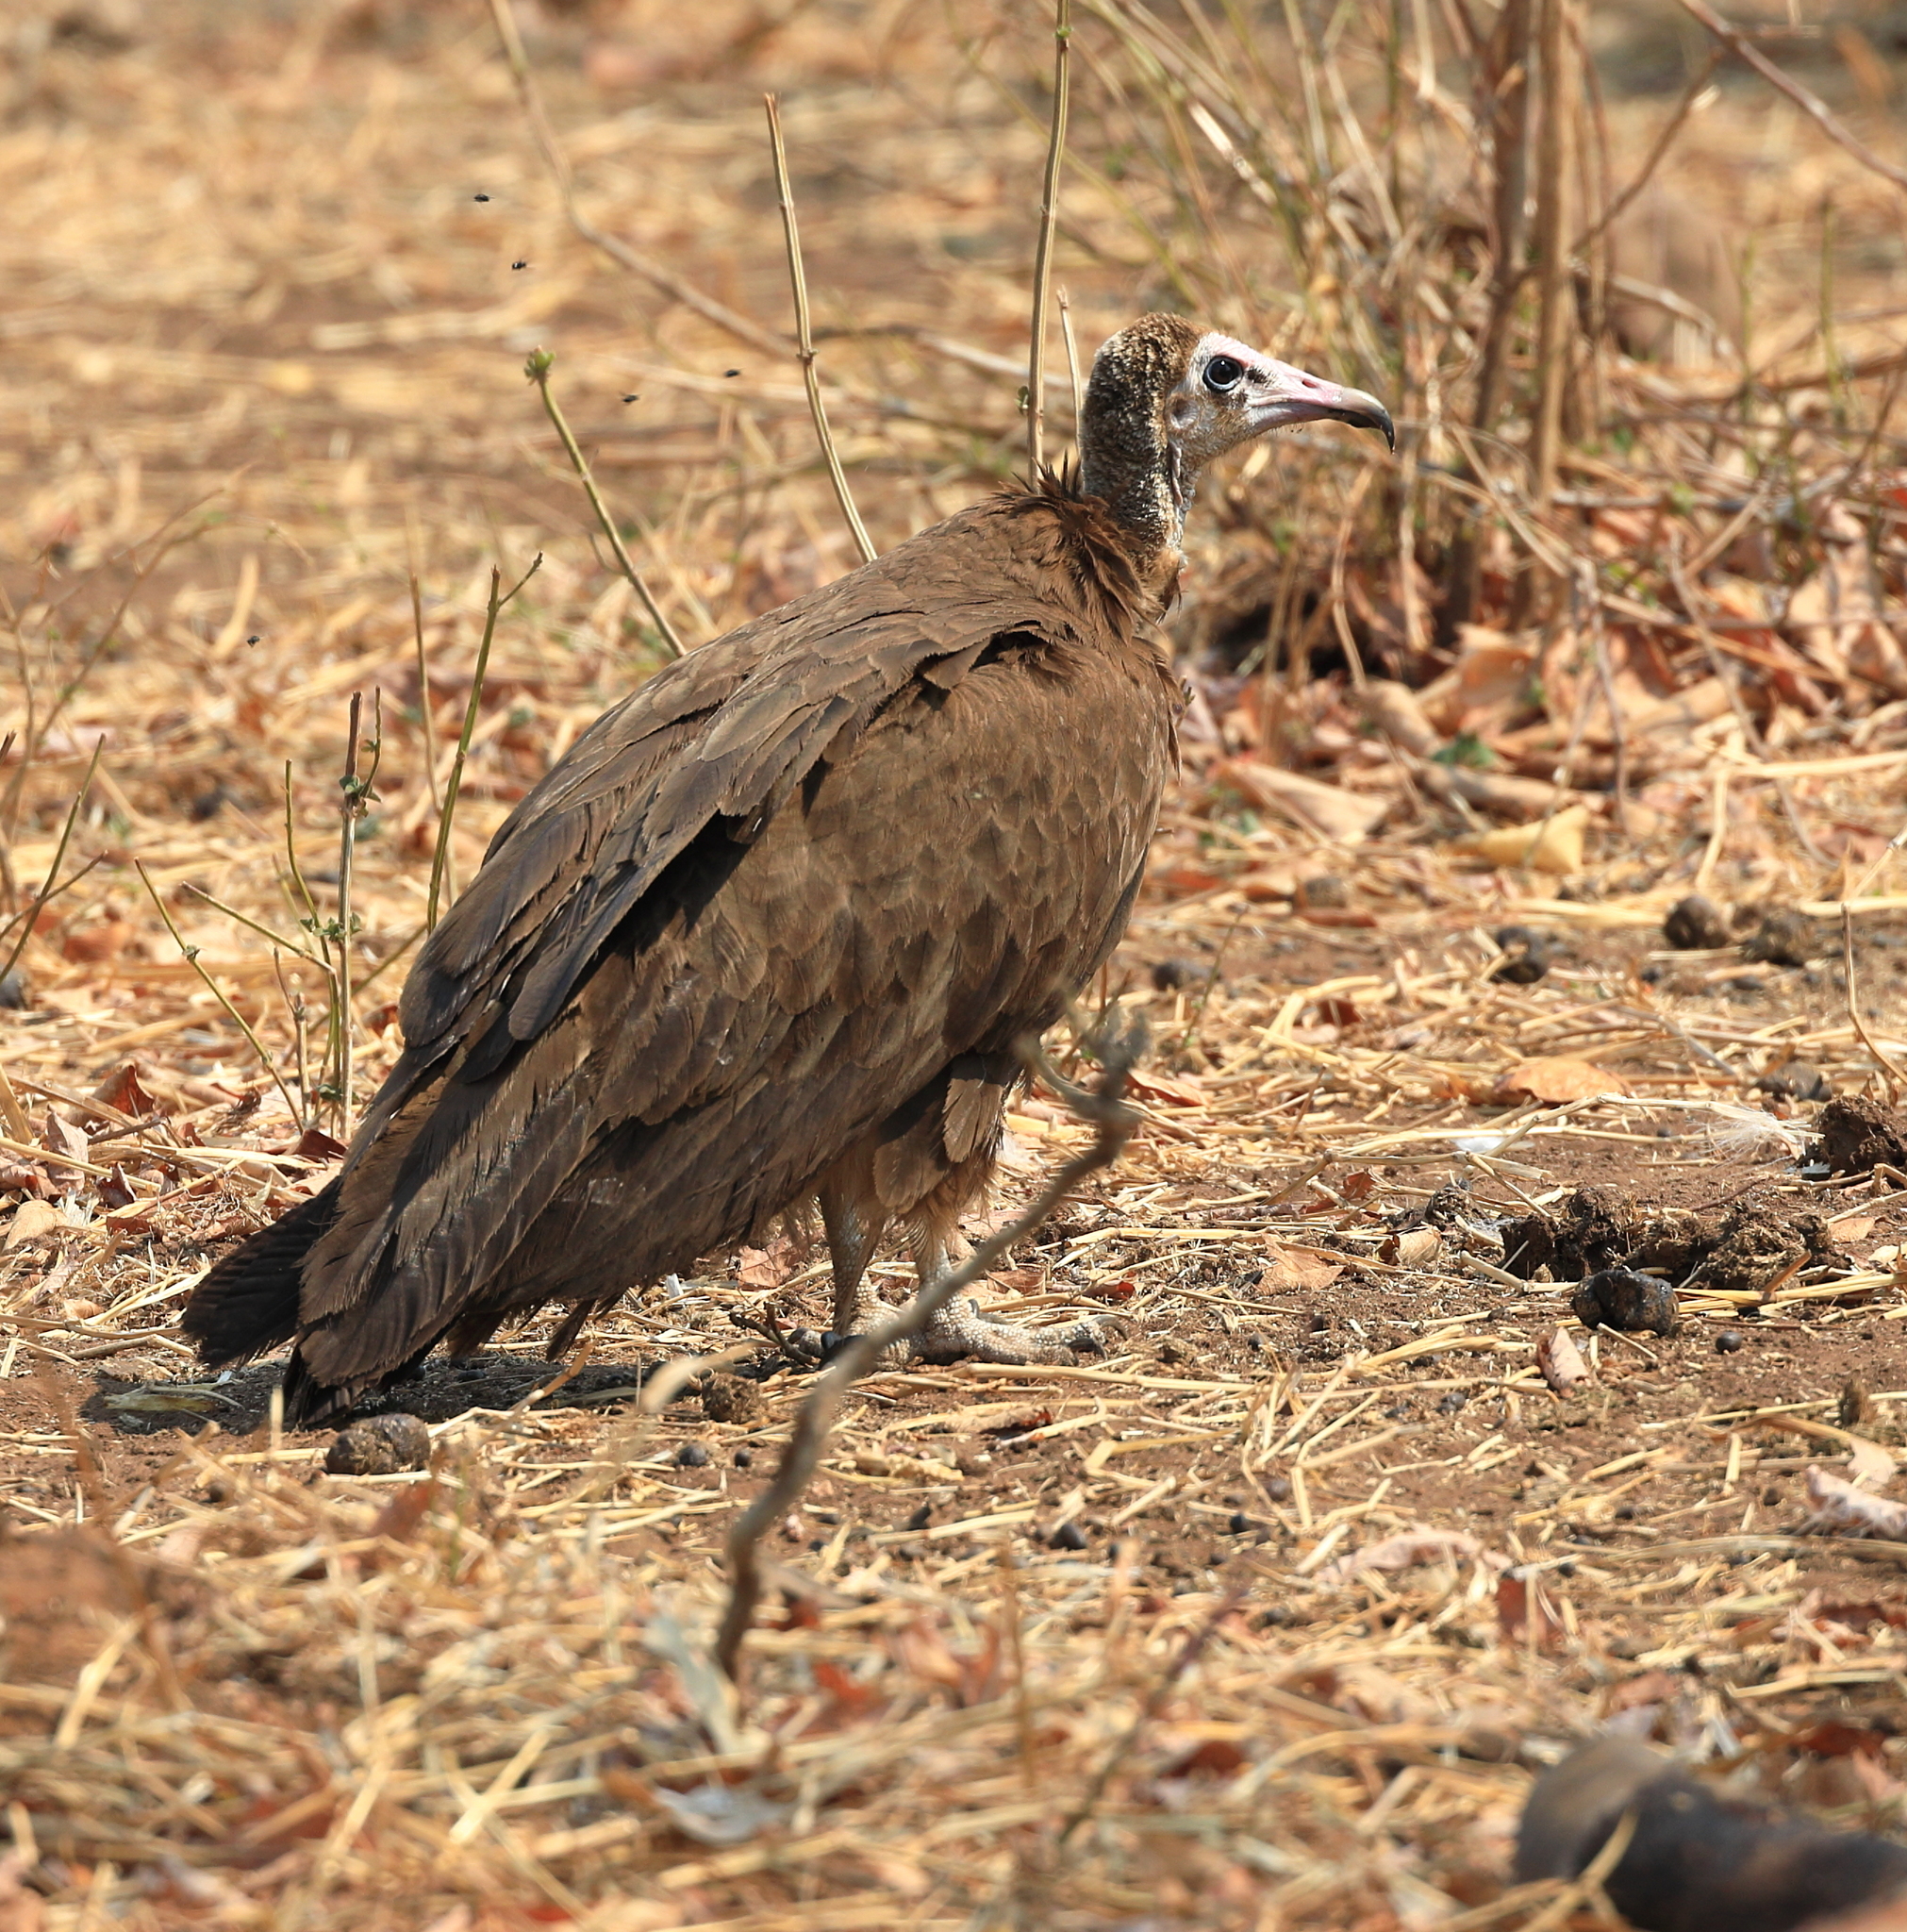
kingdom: Animalia
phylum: Chordata
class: Aves
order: Accipitriformes
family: Accipitridae
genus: Necrosyrtes
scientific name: Necrosyrtes monachus
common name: Hooded vulture
